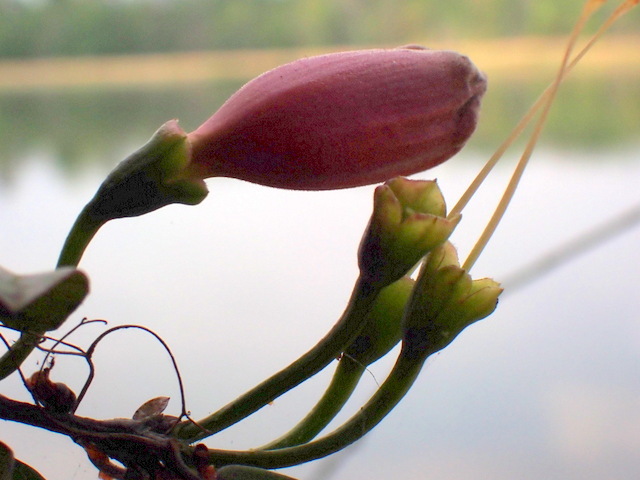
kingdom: Plantae
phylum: Tracheophyta
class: Magnoliopsida
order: Lamiales
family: Bignoniaceae
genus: Bignonia
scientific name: Bignonia capreolata
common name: Crossvine
